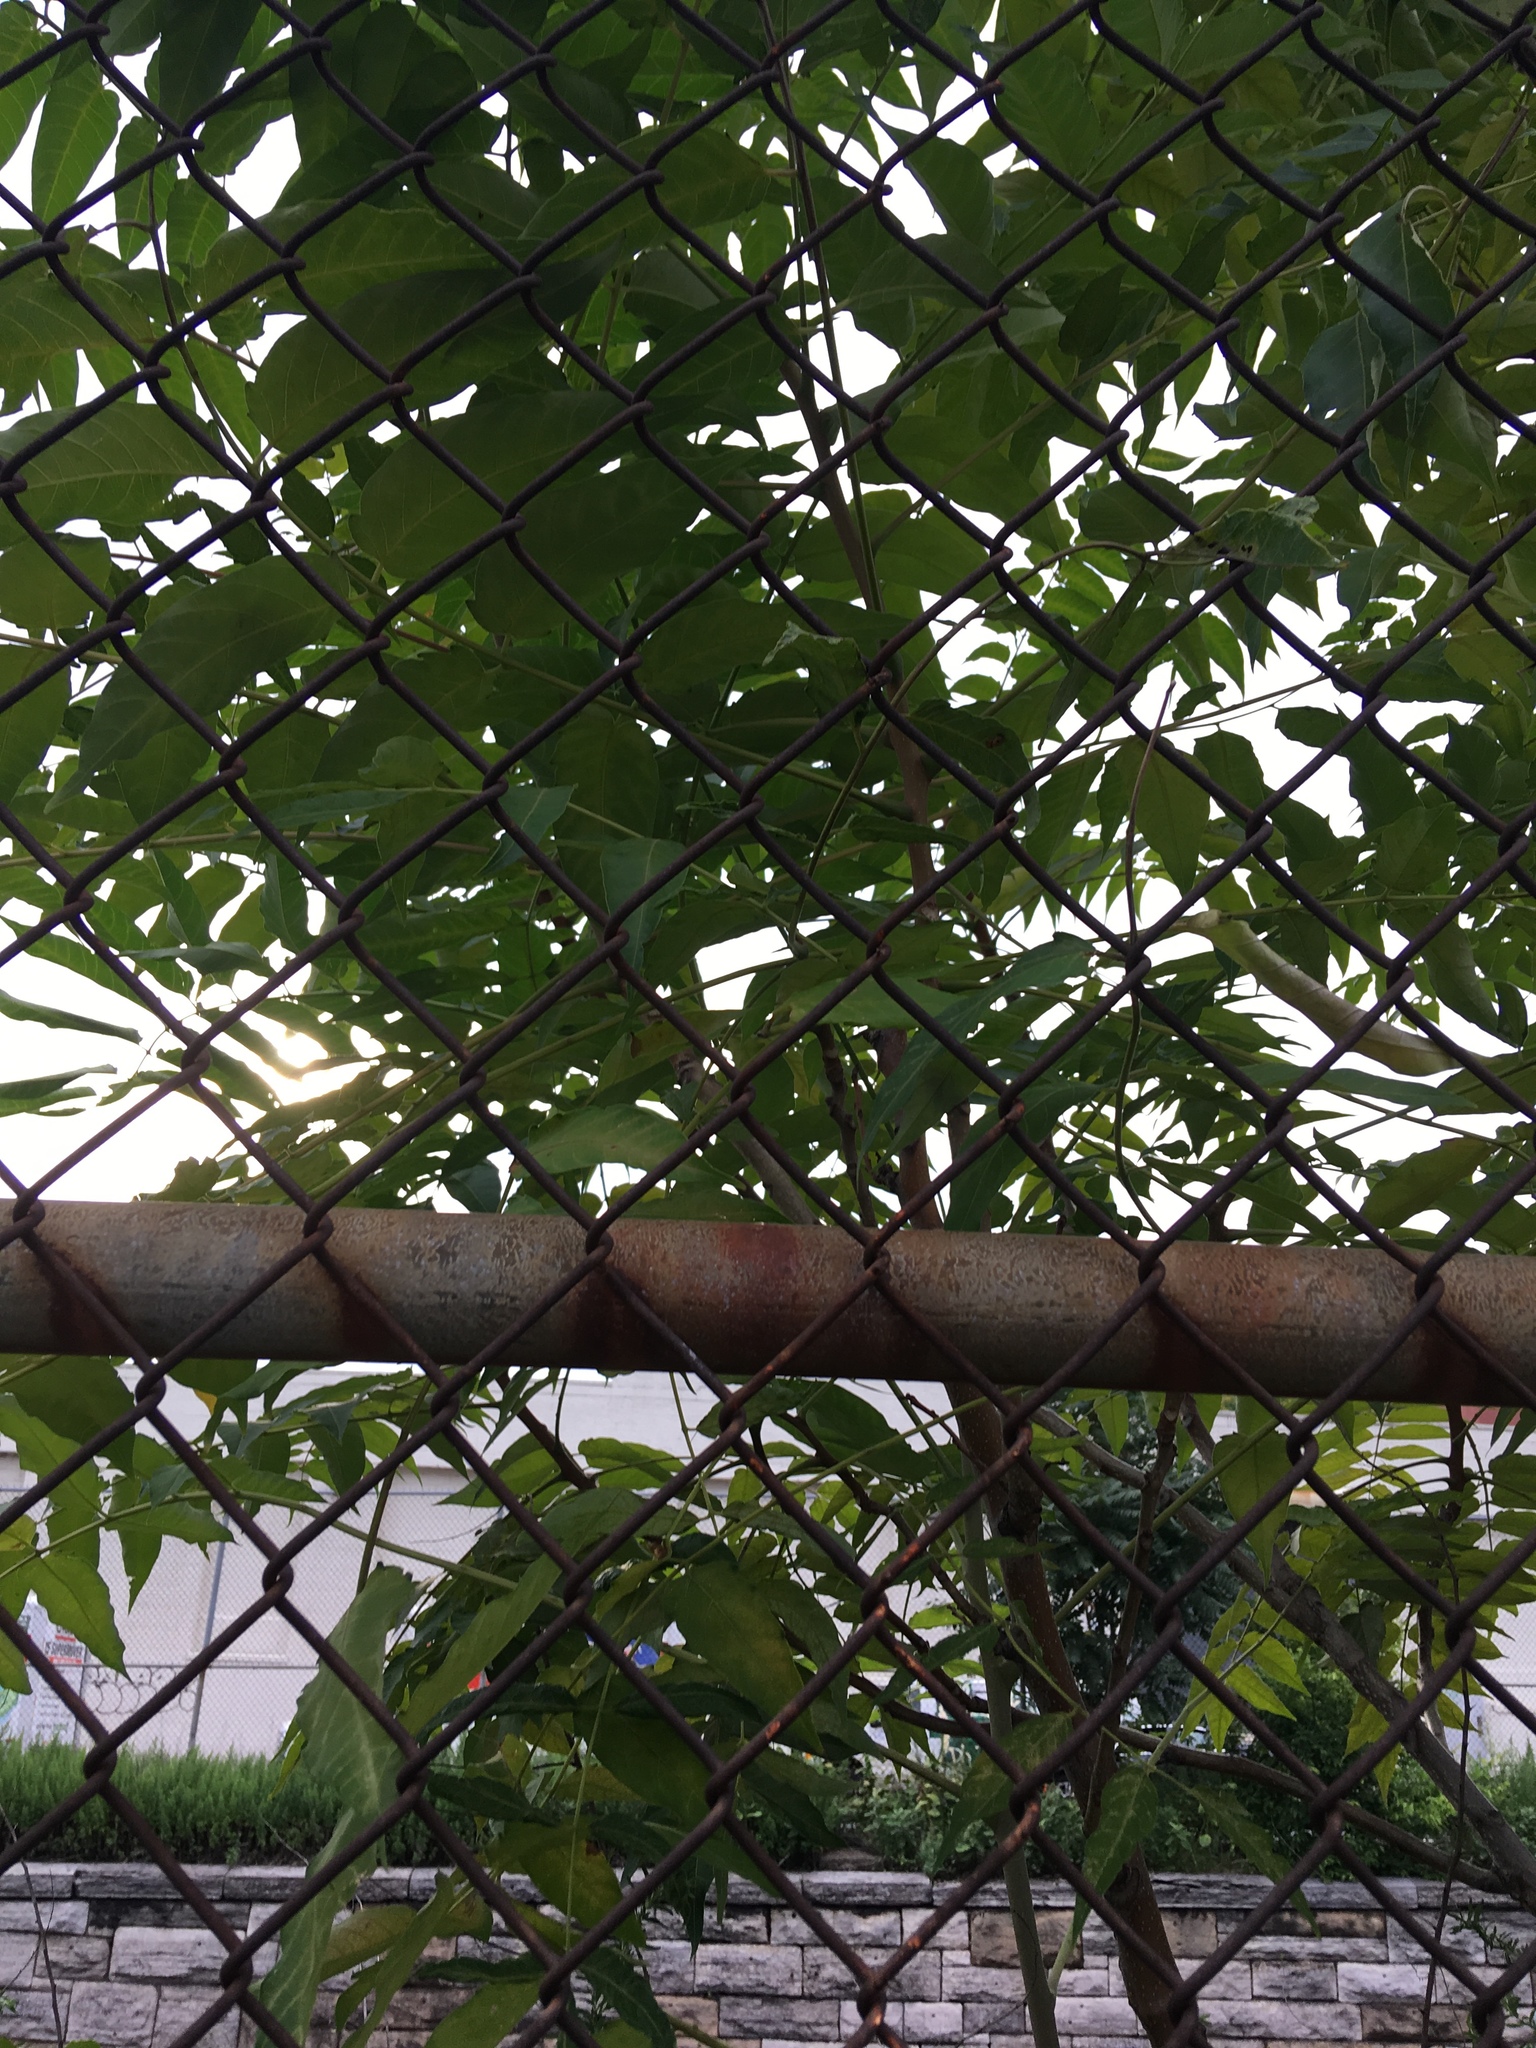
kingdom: Plantae
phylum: Tracheophyta
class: Magnoliopsida
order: Sapindales
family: Simaroubaceae
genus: Ailanthus
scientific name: Ailanthus altissima
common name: Tree-of-heaven
